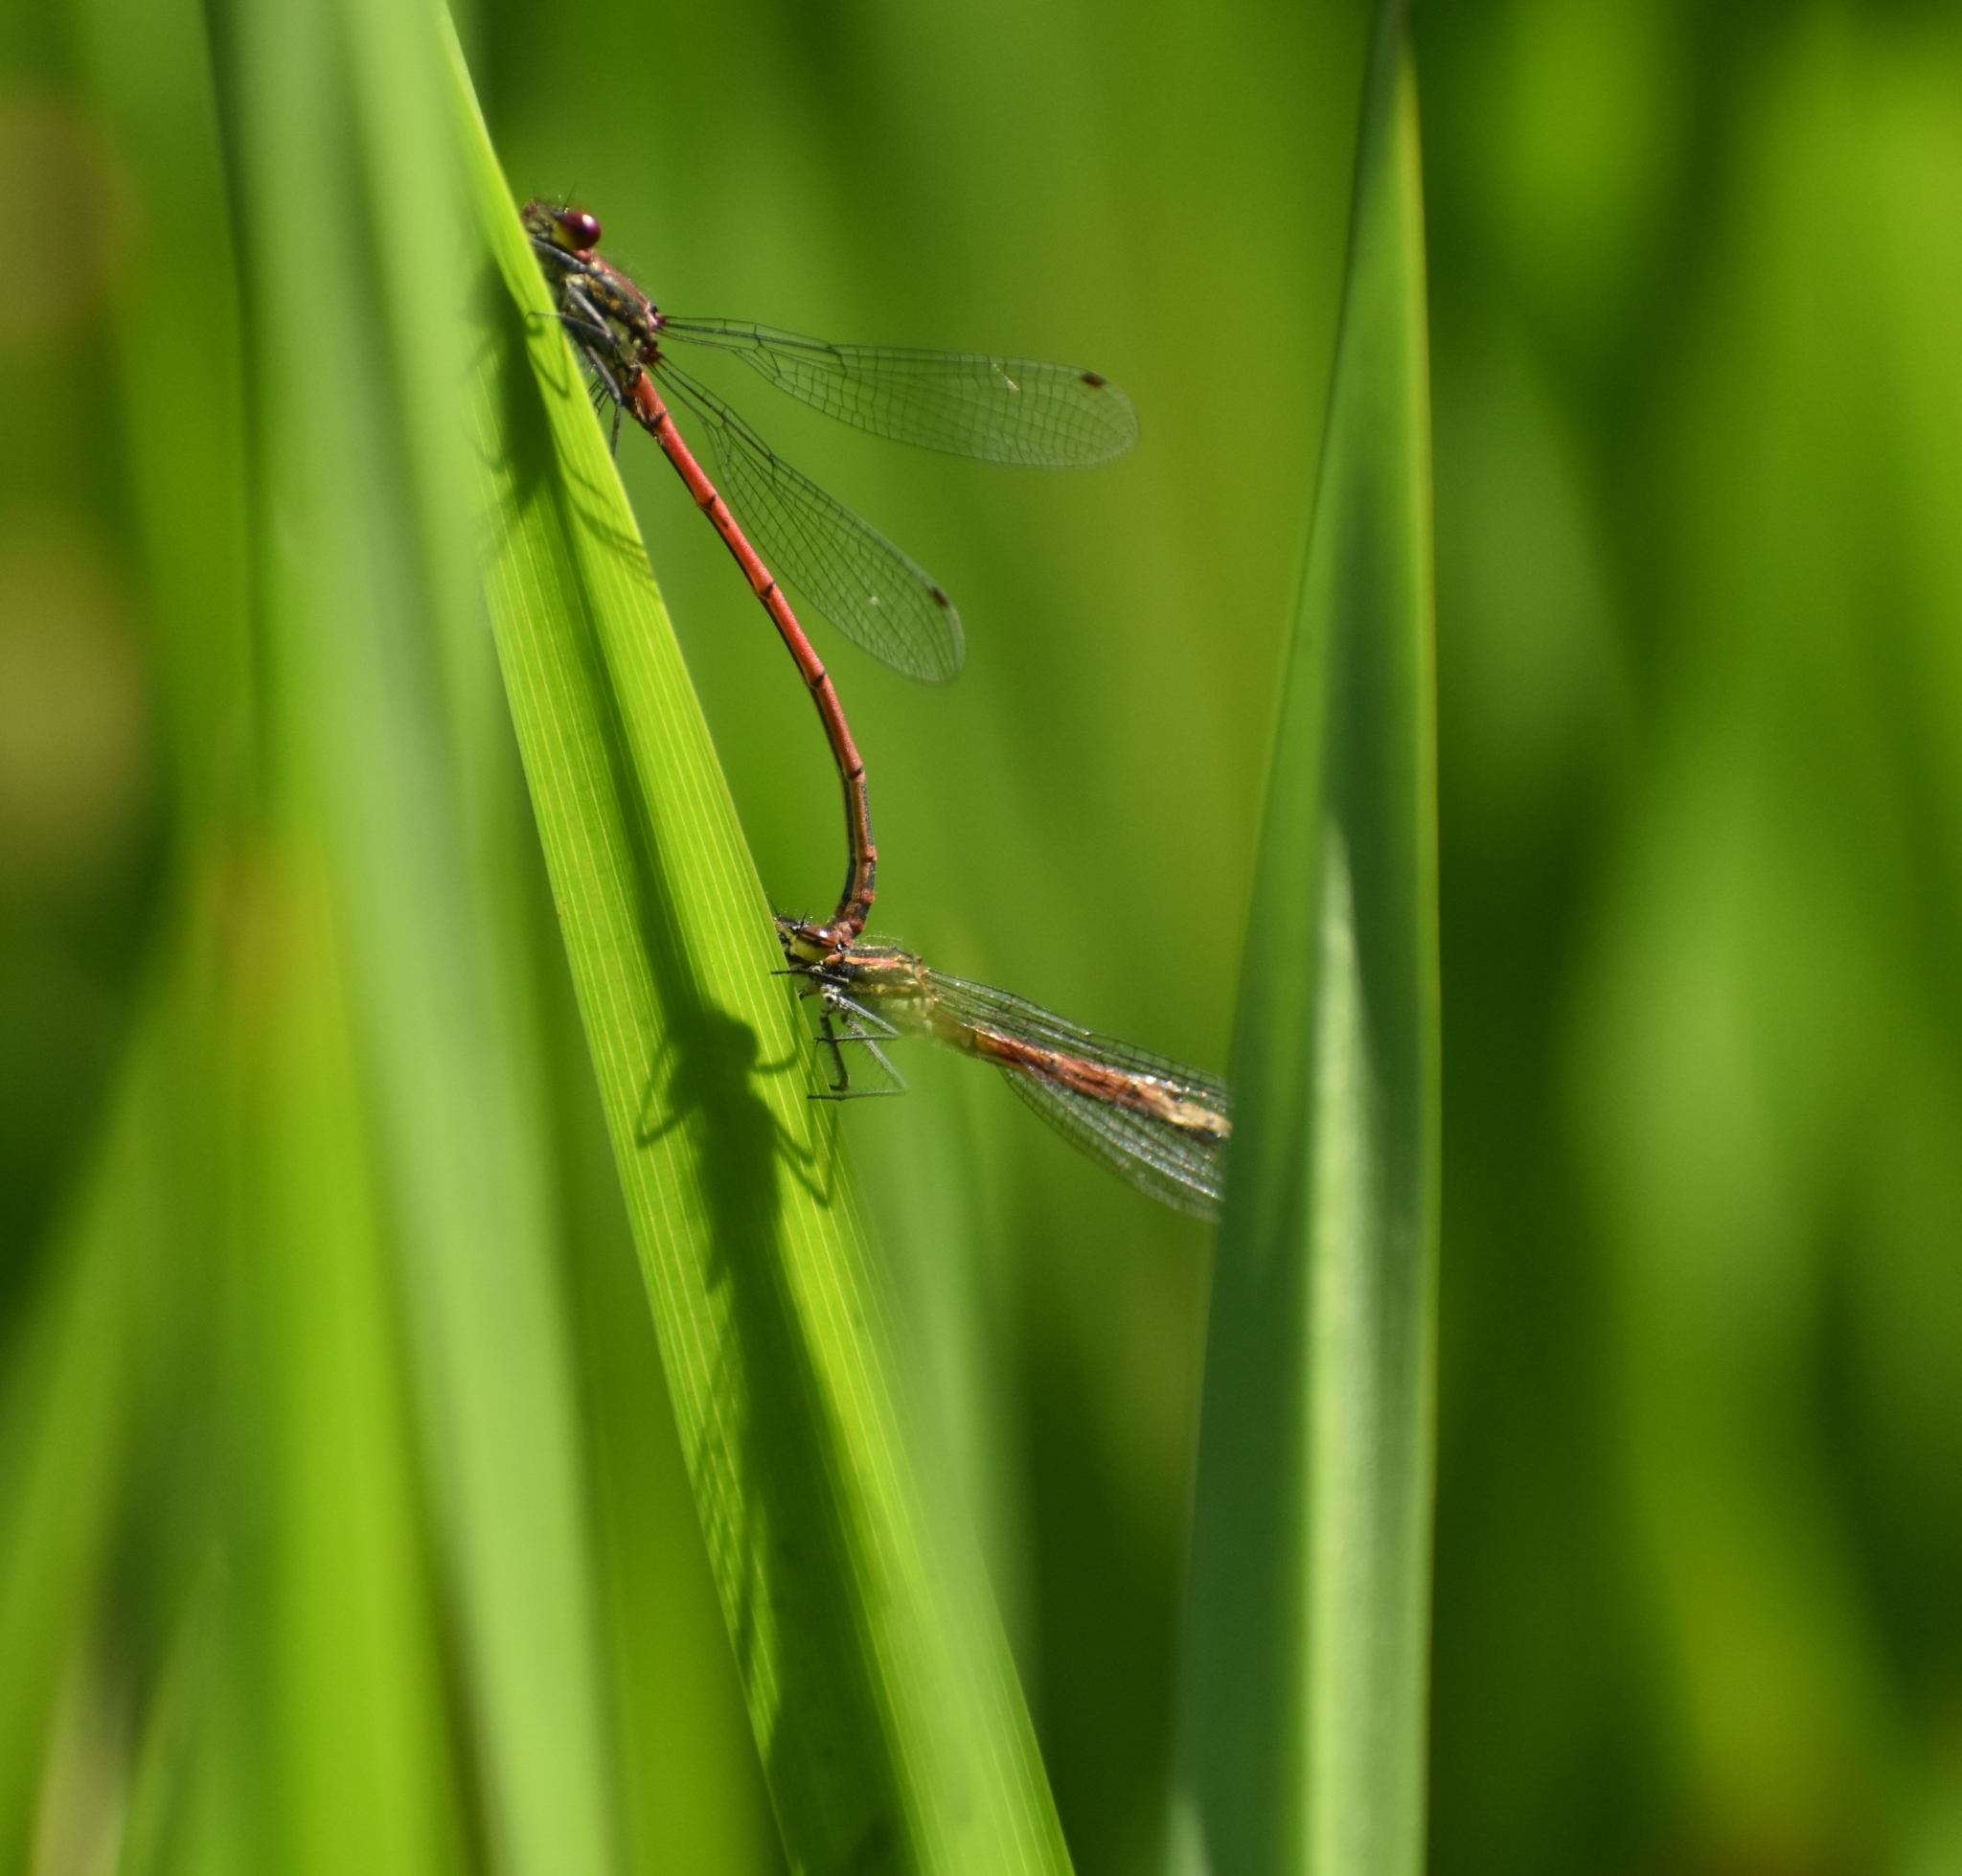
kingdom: Animalia
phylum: Arthropoda
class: Insecta
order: Odonata
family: Coenagrionidae
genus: Pyrrhosoma
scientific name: Pyrrhosoma nymphula
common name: Large red damsel
